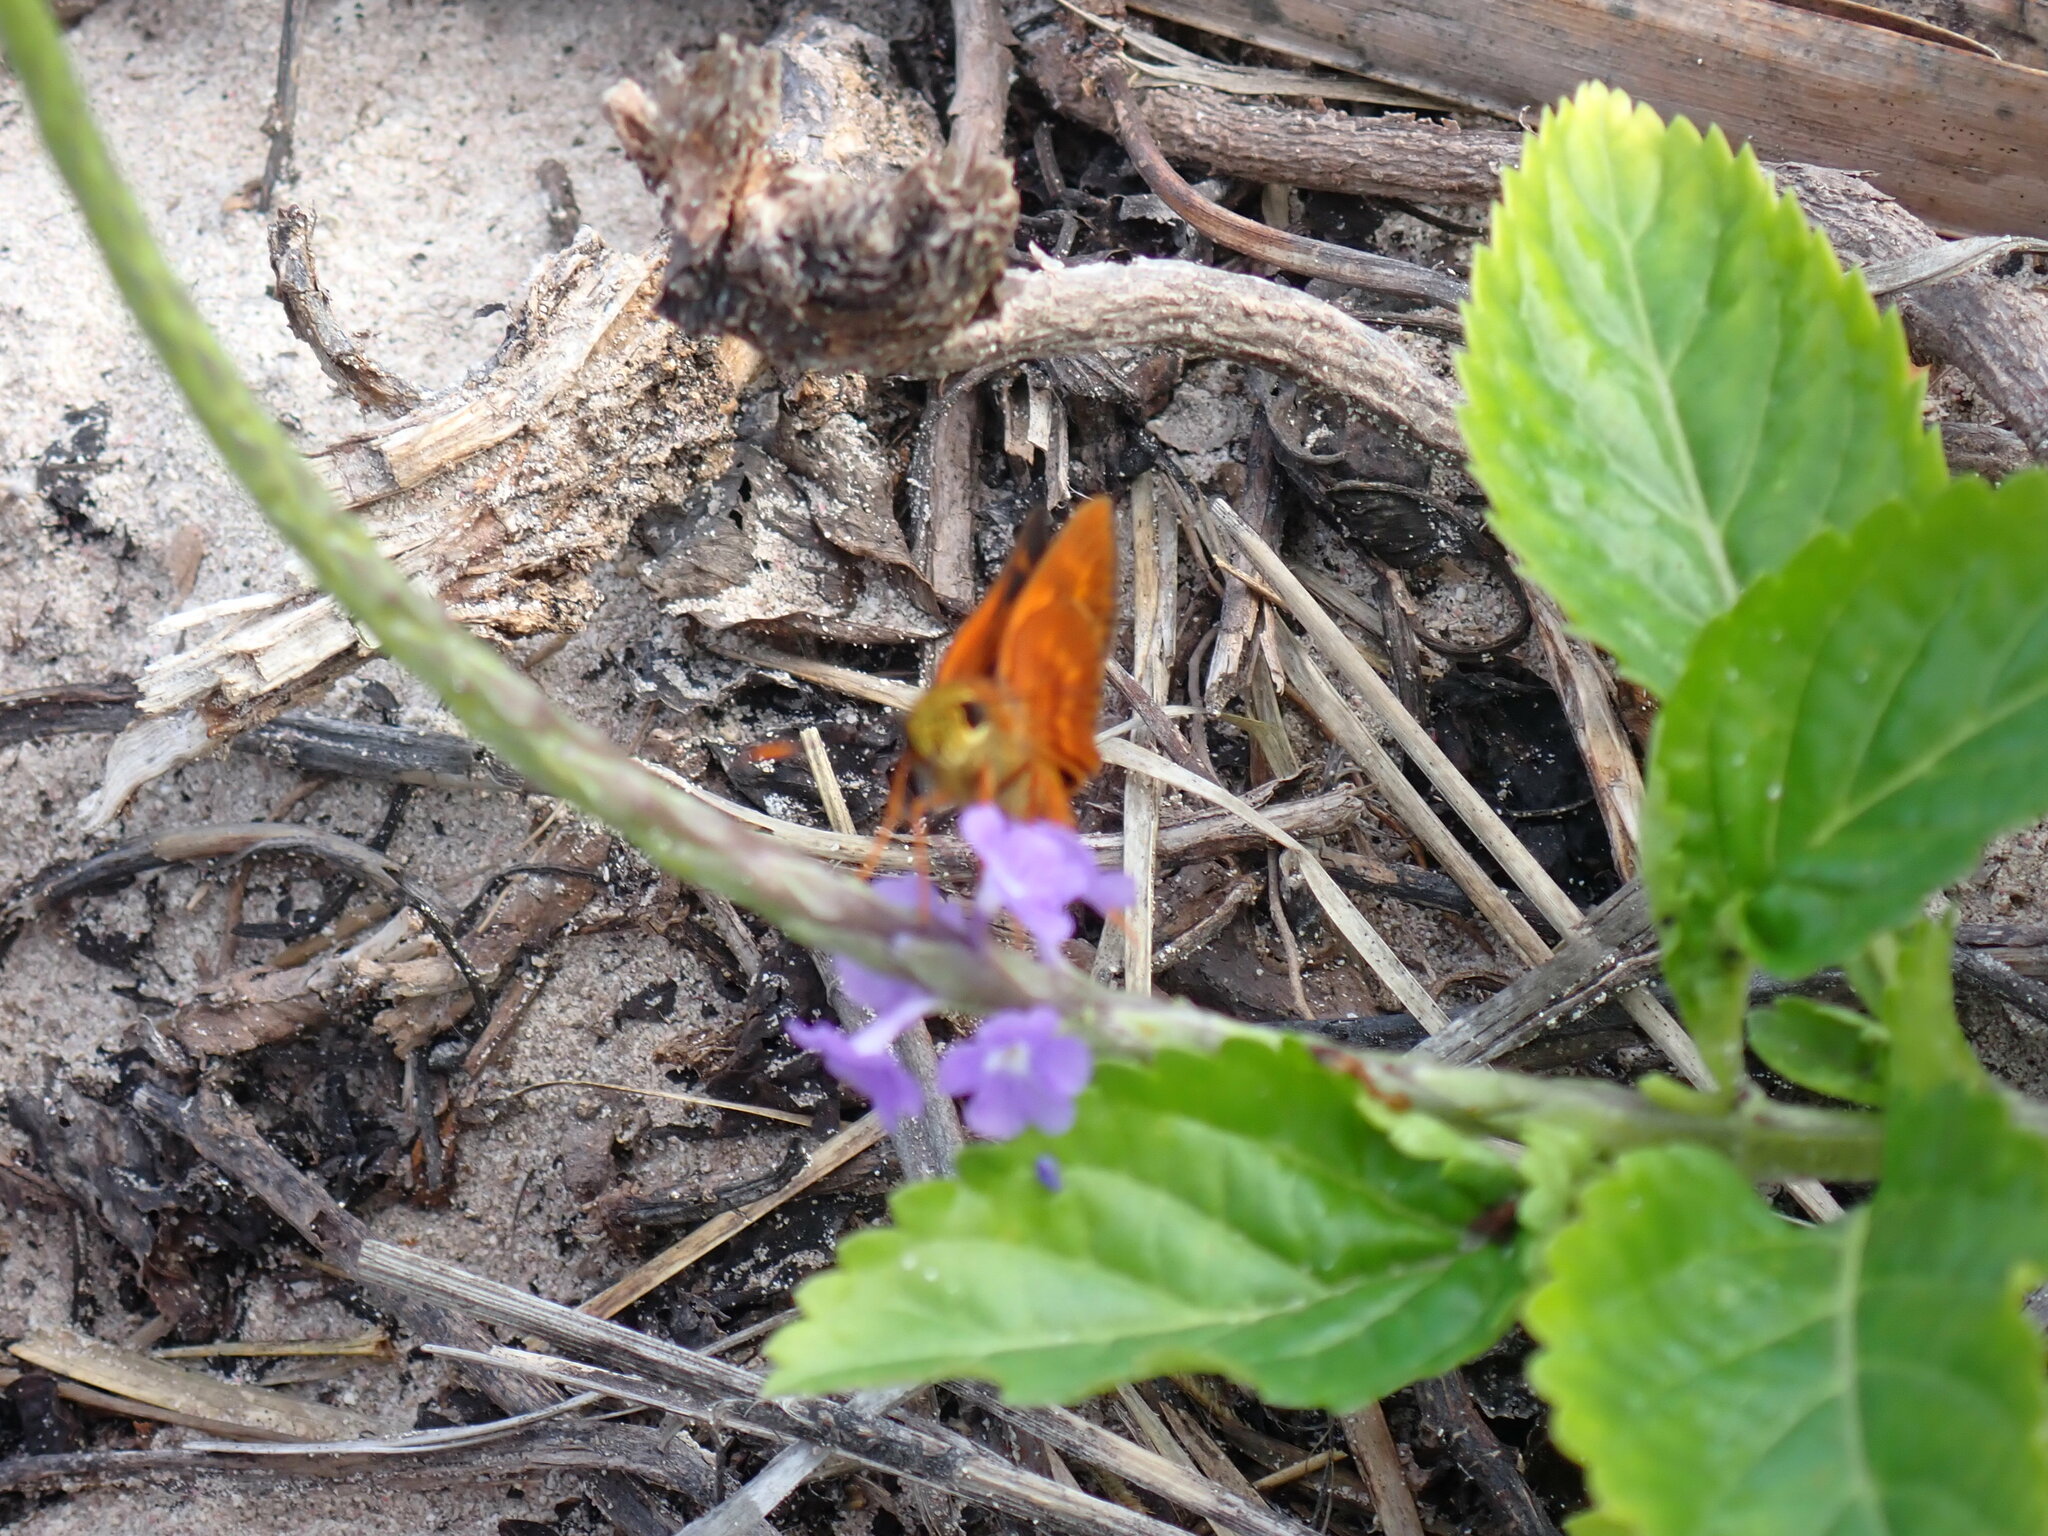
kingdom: Animalia
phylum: Arthropoda
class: Insecta
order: Lepidoptera
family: Hesperiidae
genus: Pyrrhocalles
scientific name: Pyrrhocalles antiqua
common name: Caribbean skipper
